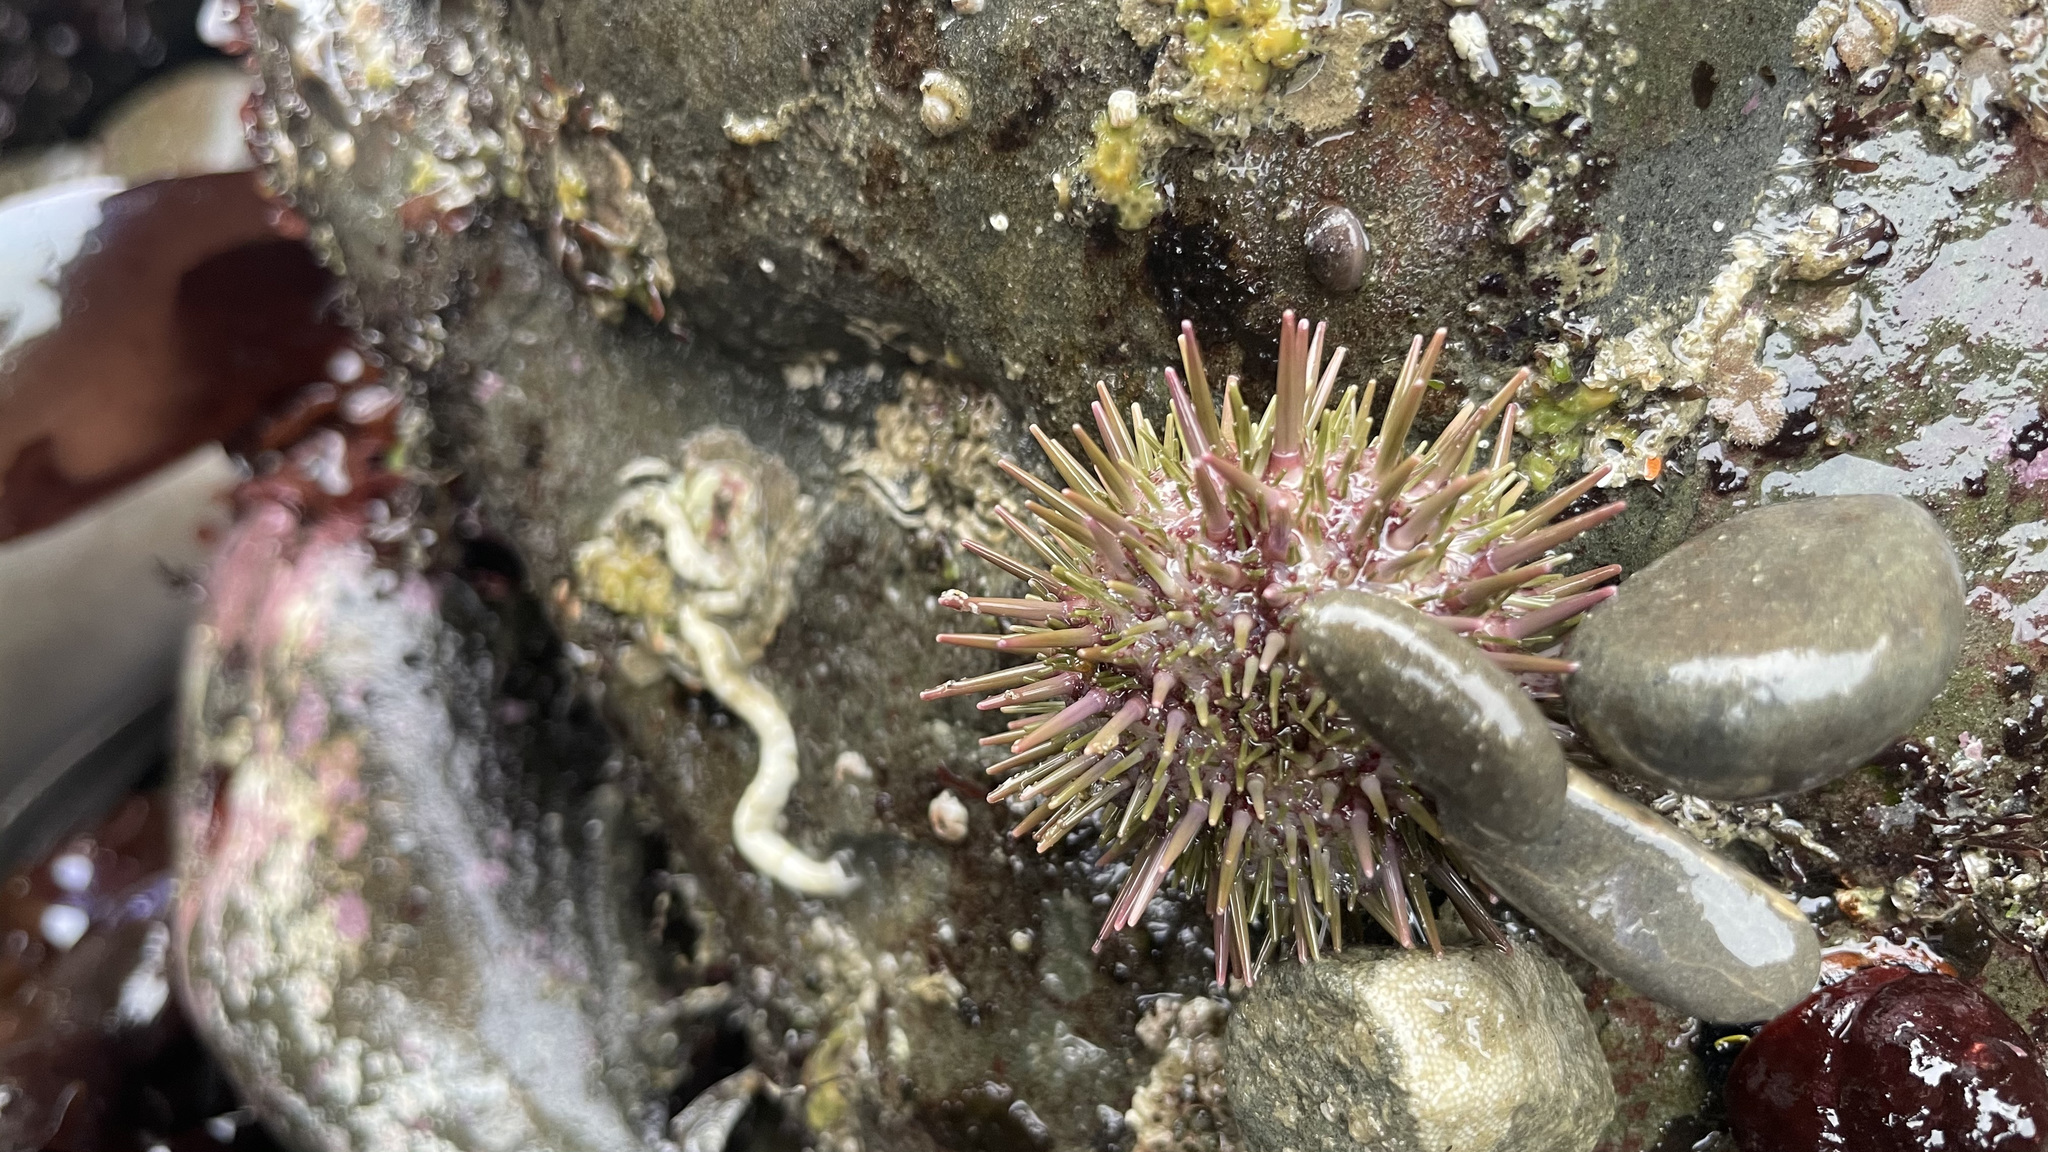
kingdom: Animalia
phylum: Echinodermata
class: Echinoidea
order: Camarodonta
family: Strongylocentrotidae
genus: Strongylocentrotus
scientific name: Strongylocentrotus purpuratus
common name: Purple sea urchin
